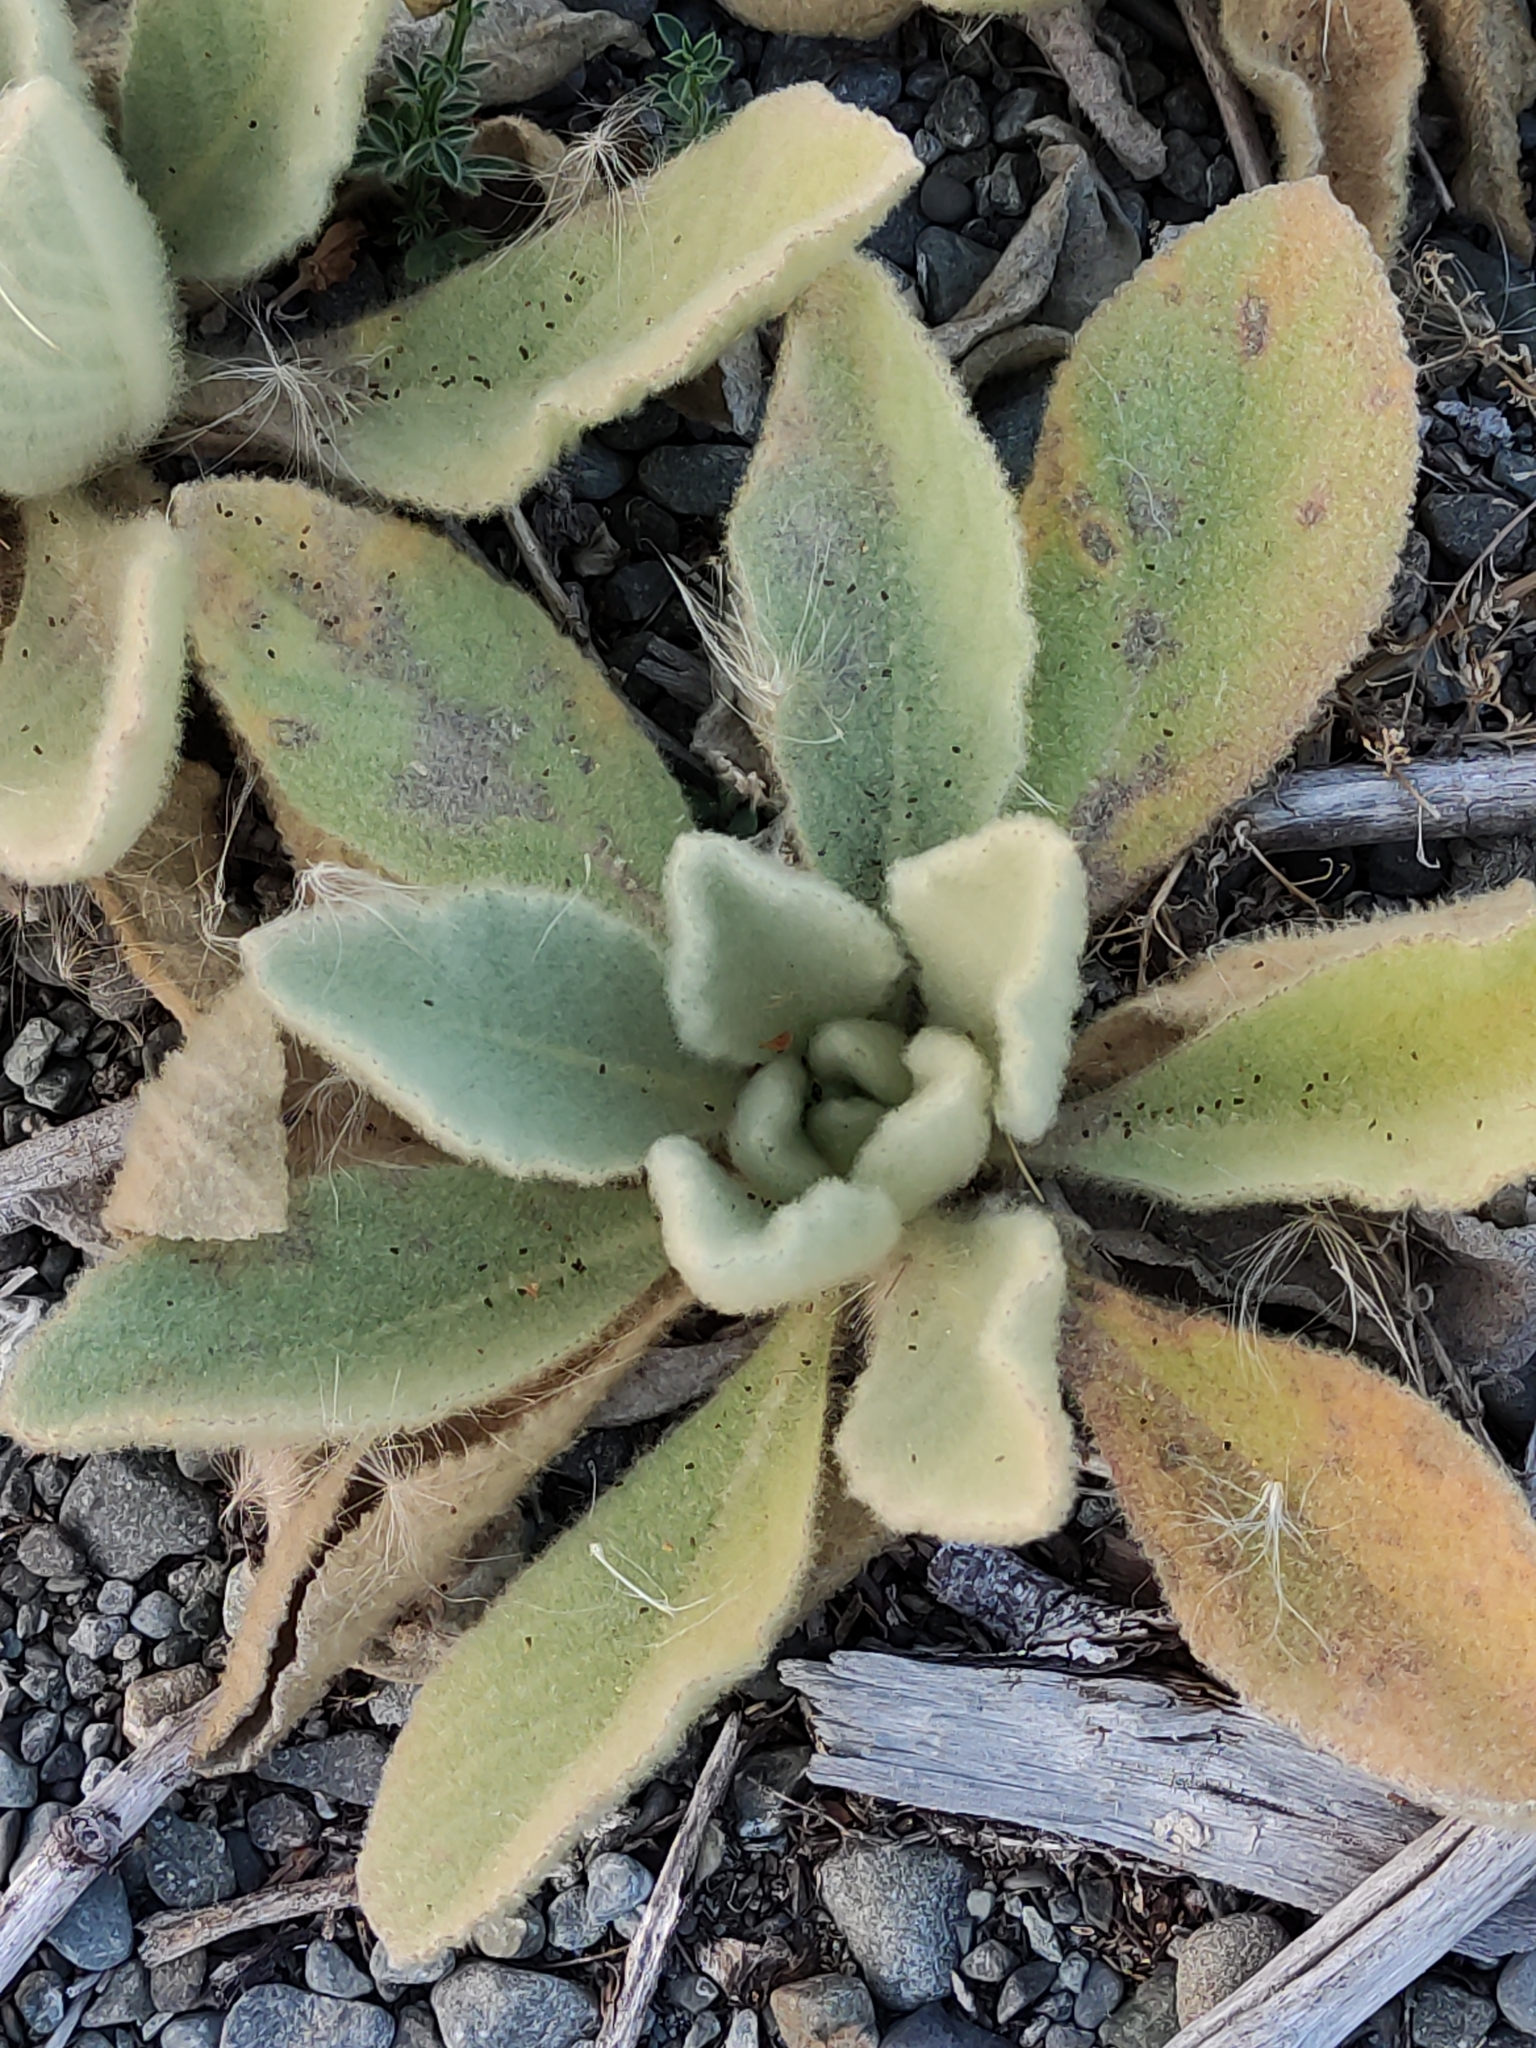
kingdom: Plantae
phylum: Tracheophyta
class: Magnoliopsida
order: Lamiales
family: Scrophulariaceae
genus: Verbascum
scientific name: Verbascum thapsus
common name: Common mullein
